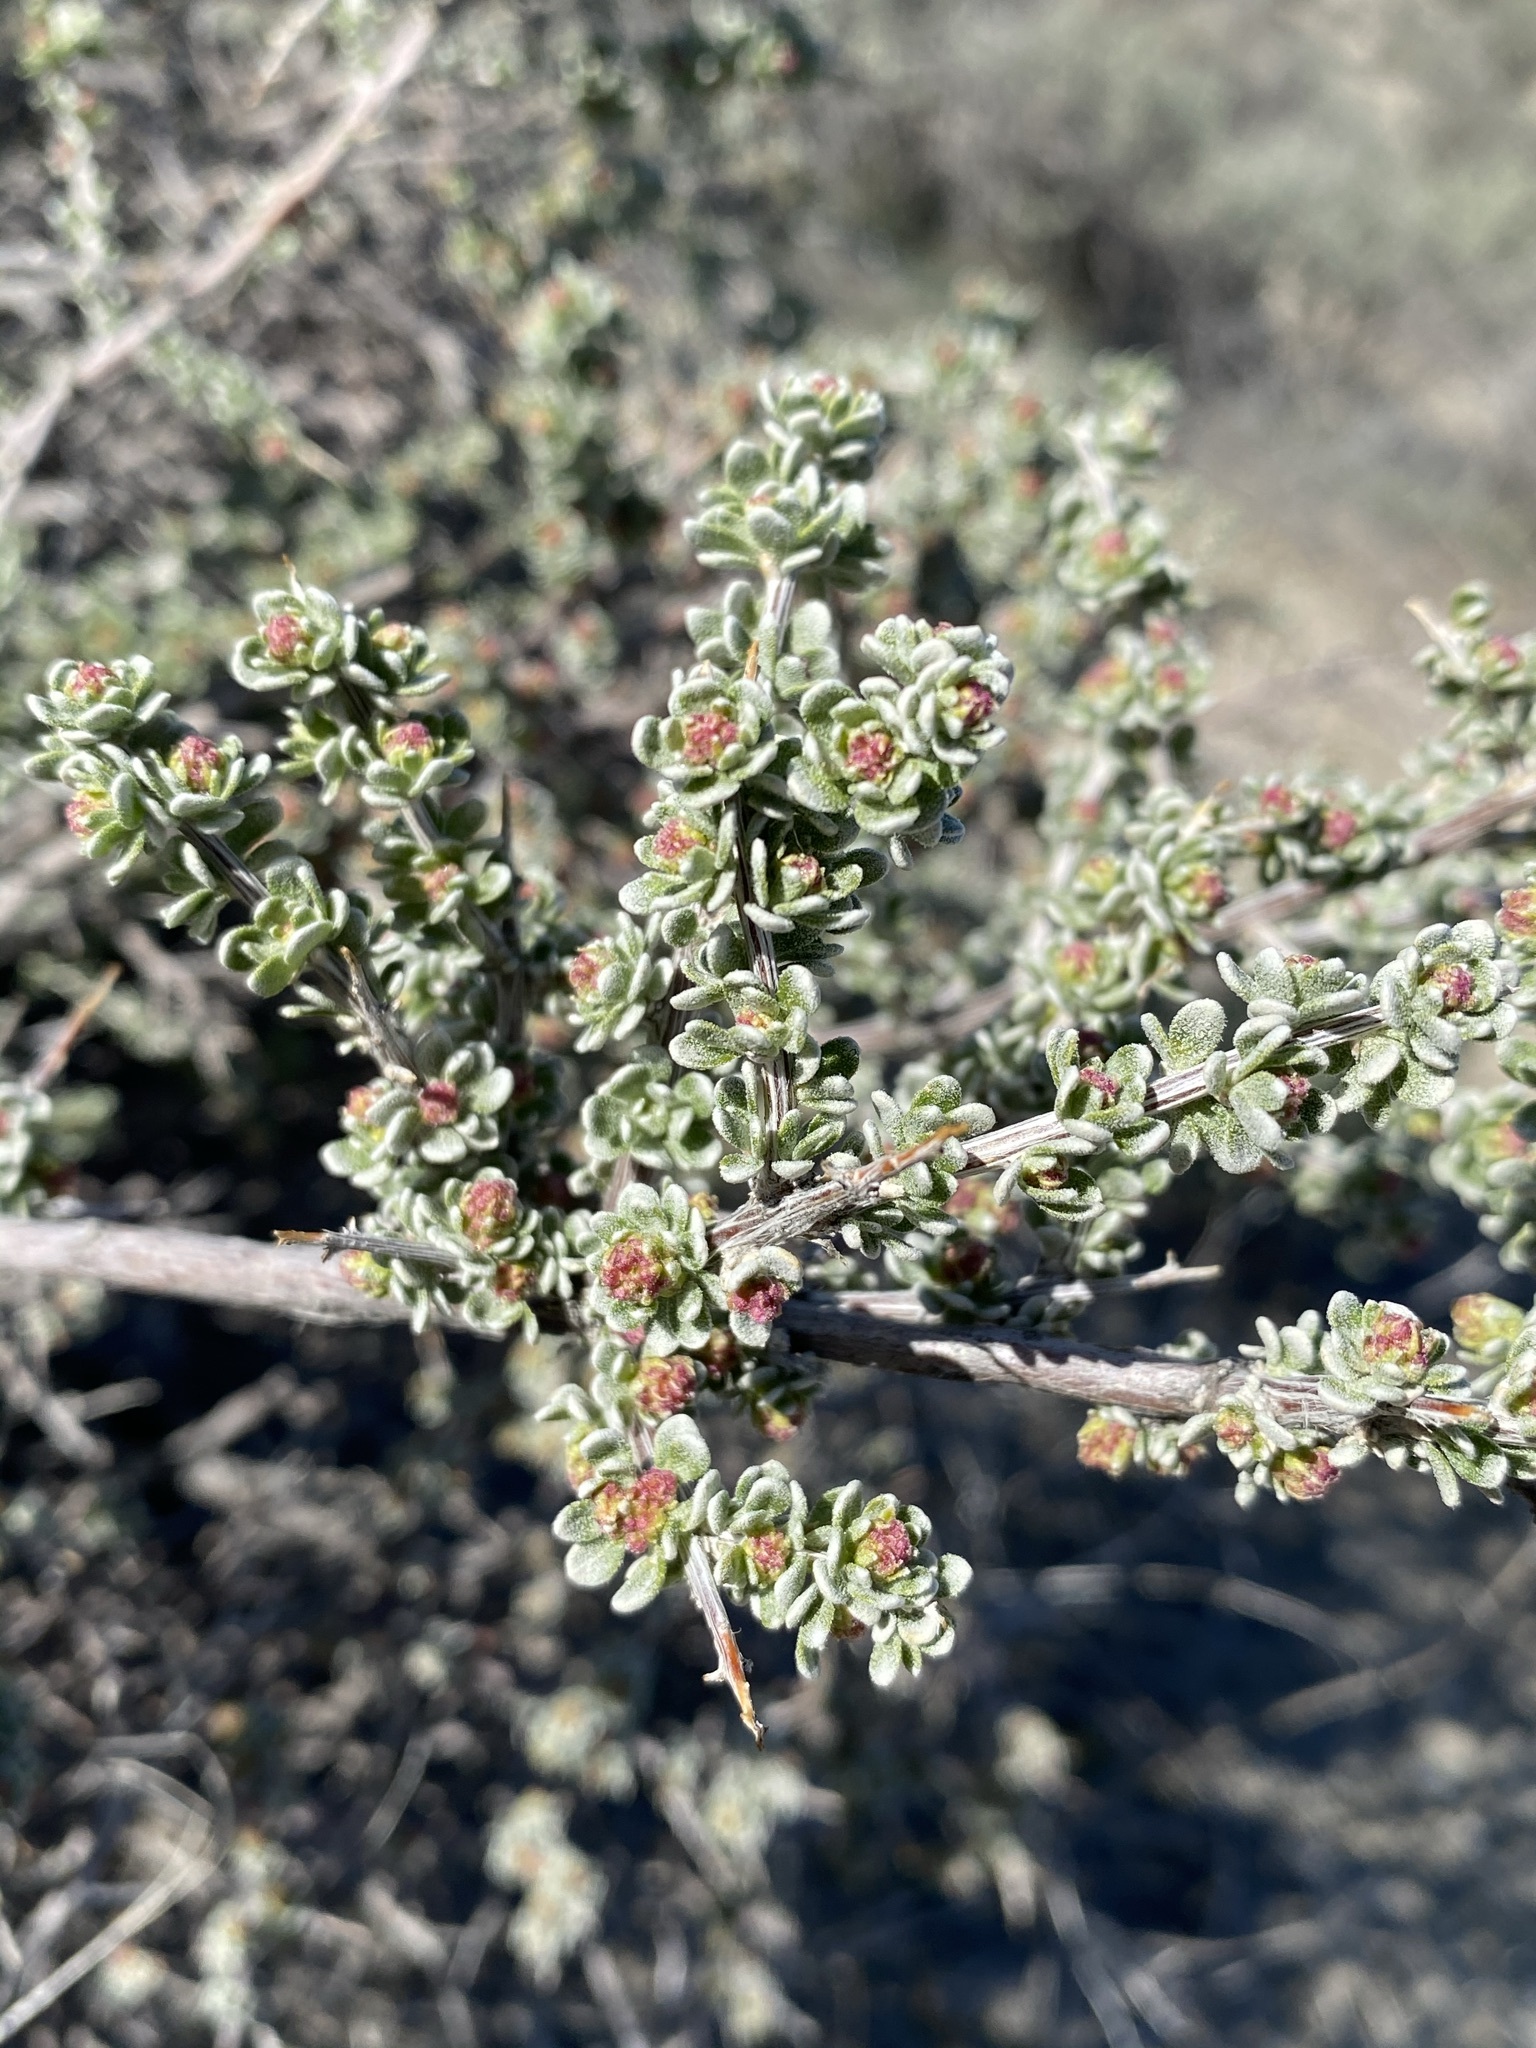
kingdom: Plantae
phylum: Tracheophyta
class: Magnoliopsida
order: Caryophyllales
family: Amaranthaceae
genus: Grayia
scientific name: Grayia spinosa
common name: Spiny hopsage
